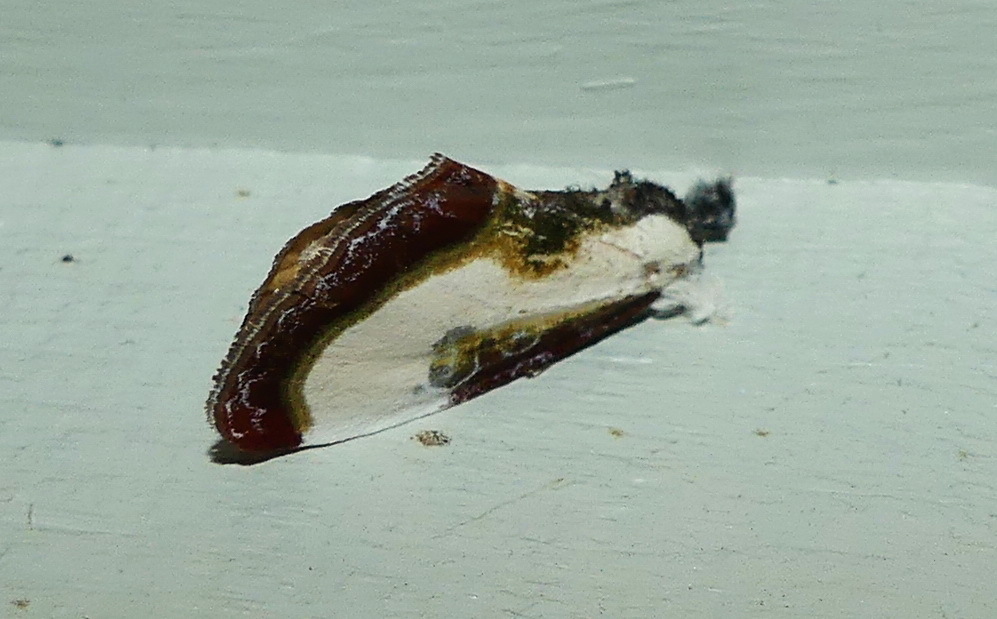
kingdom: Animalia
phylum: Arthropoda
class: Insecta
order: Lepidoptera
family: Noctuidae
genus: Eudryas
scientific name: Eudryas grata
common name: Beautiful wood-nymph
